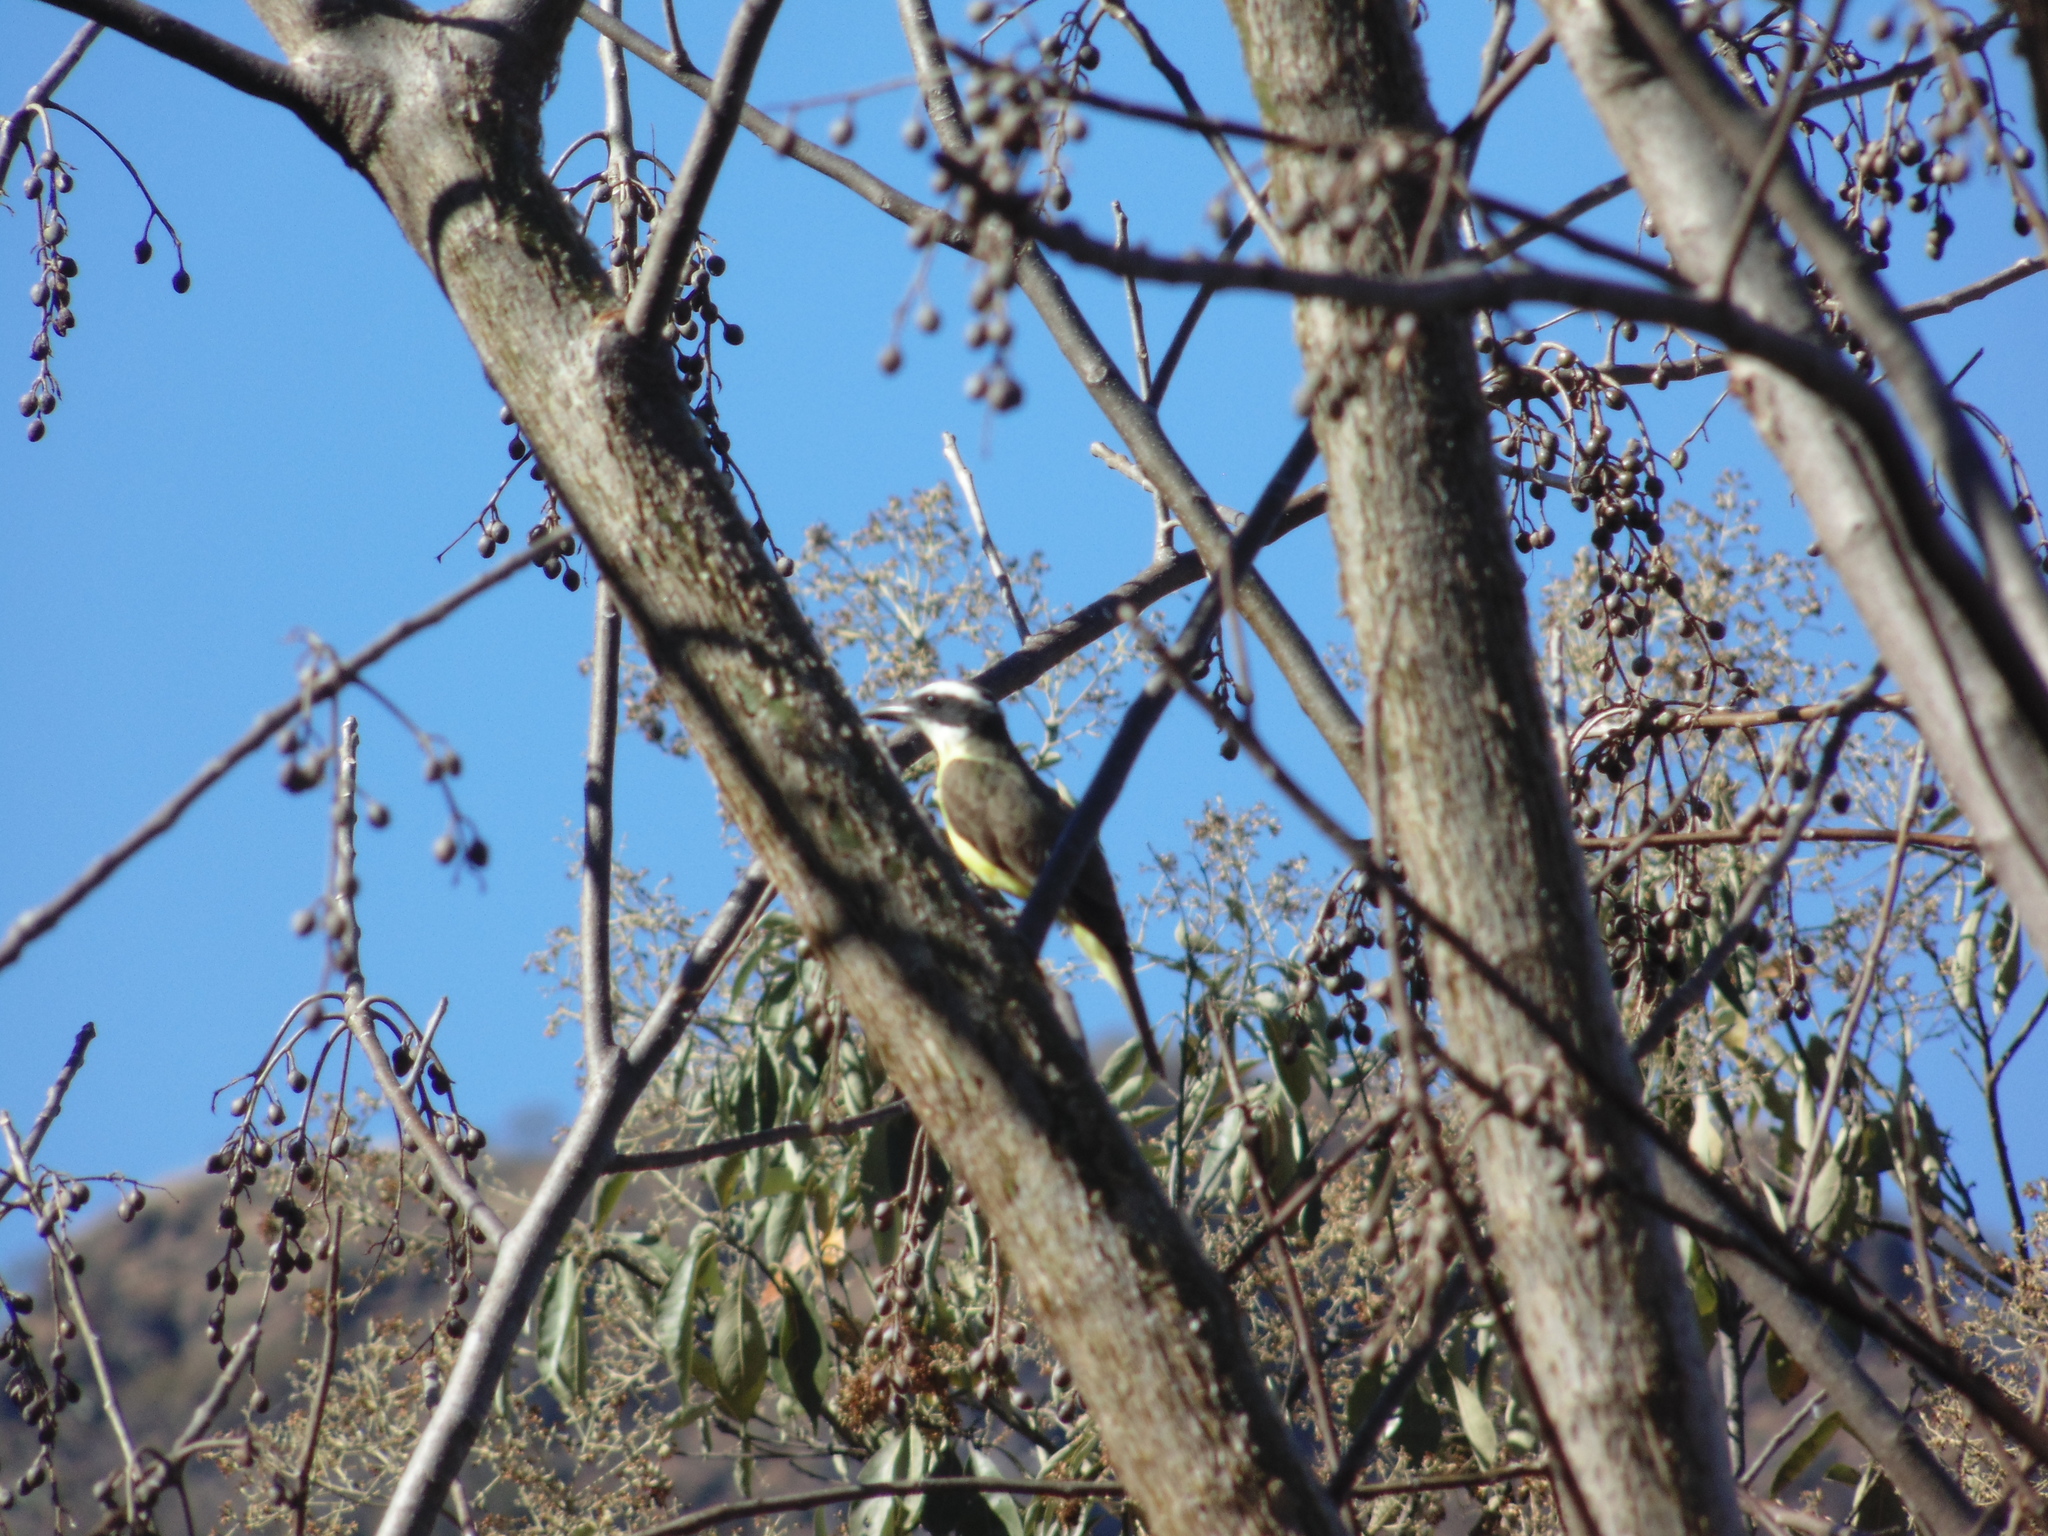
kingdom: Animalia
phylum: Chordata
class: Aves
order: Passeriformes
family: Tyrannidae
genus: Megarynchus
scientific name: Megarynchus pitangua
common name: Boat-billed flycatcher
